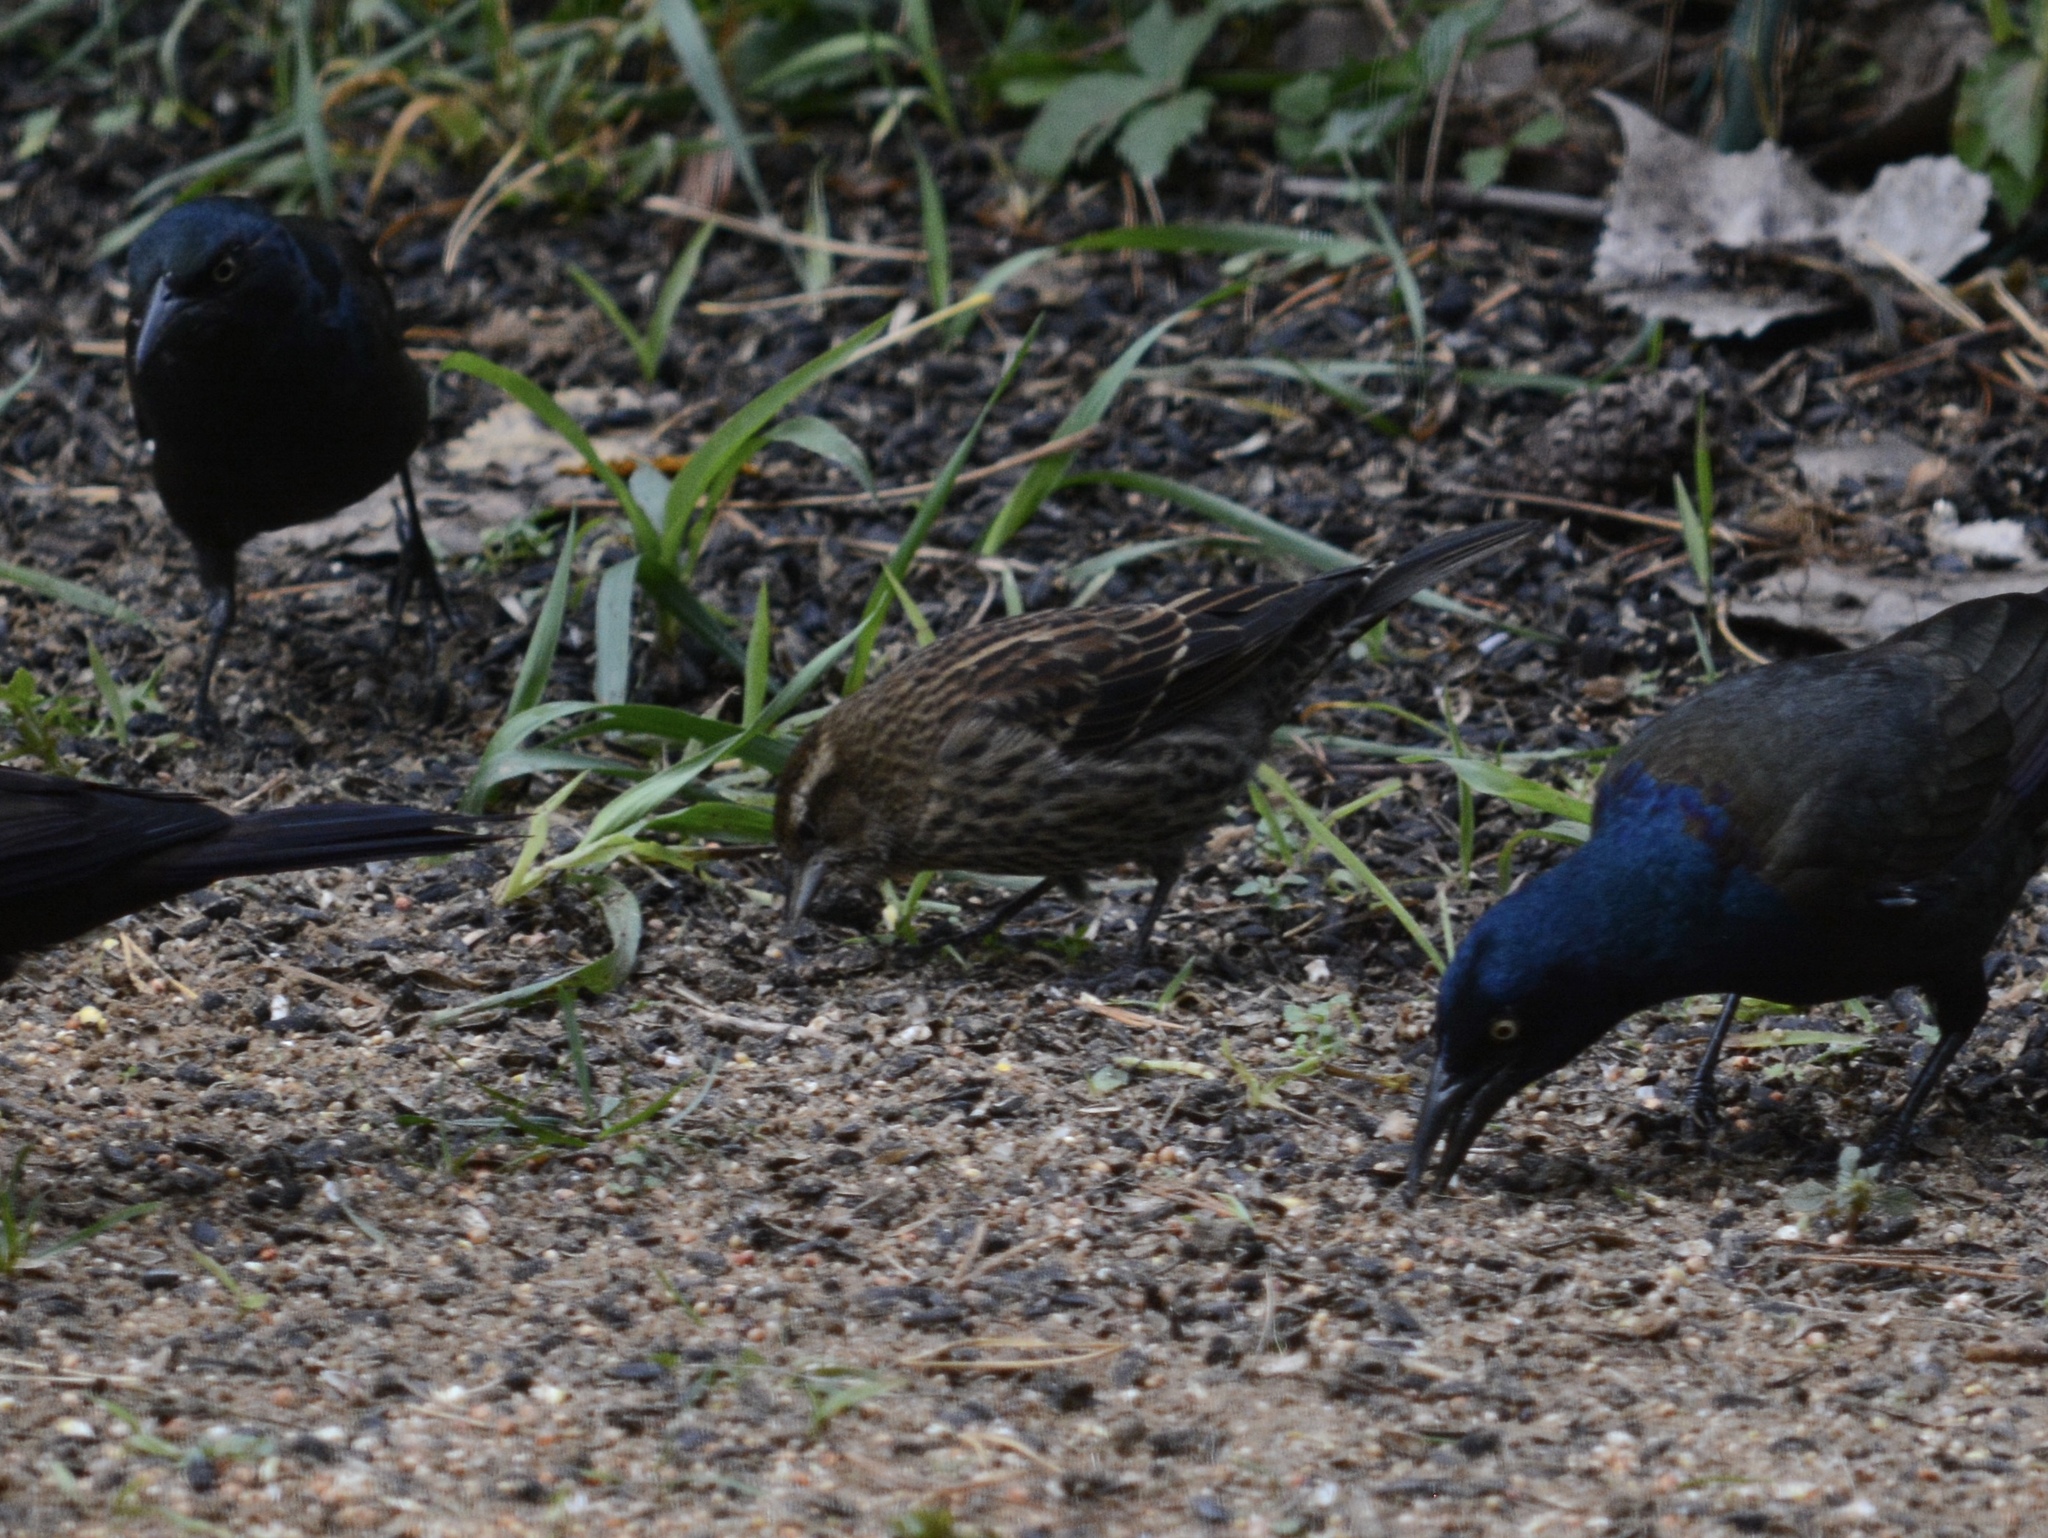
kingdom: Animalia
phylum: Chordata
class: Aves
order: Passeriformes
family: Icteridae
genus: Agelaius
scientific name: Agelaius phoeniceus
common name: Red-winged blackbird
